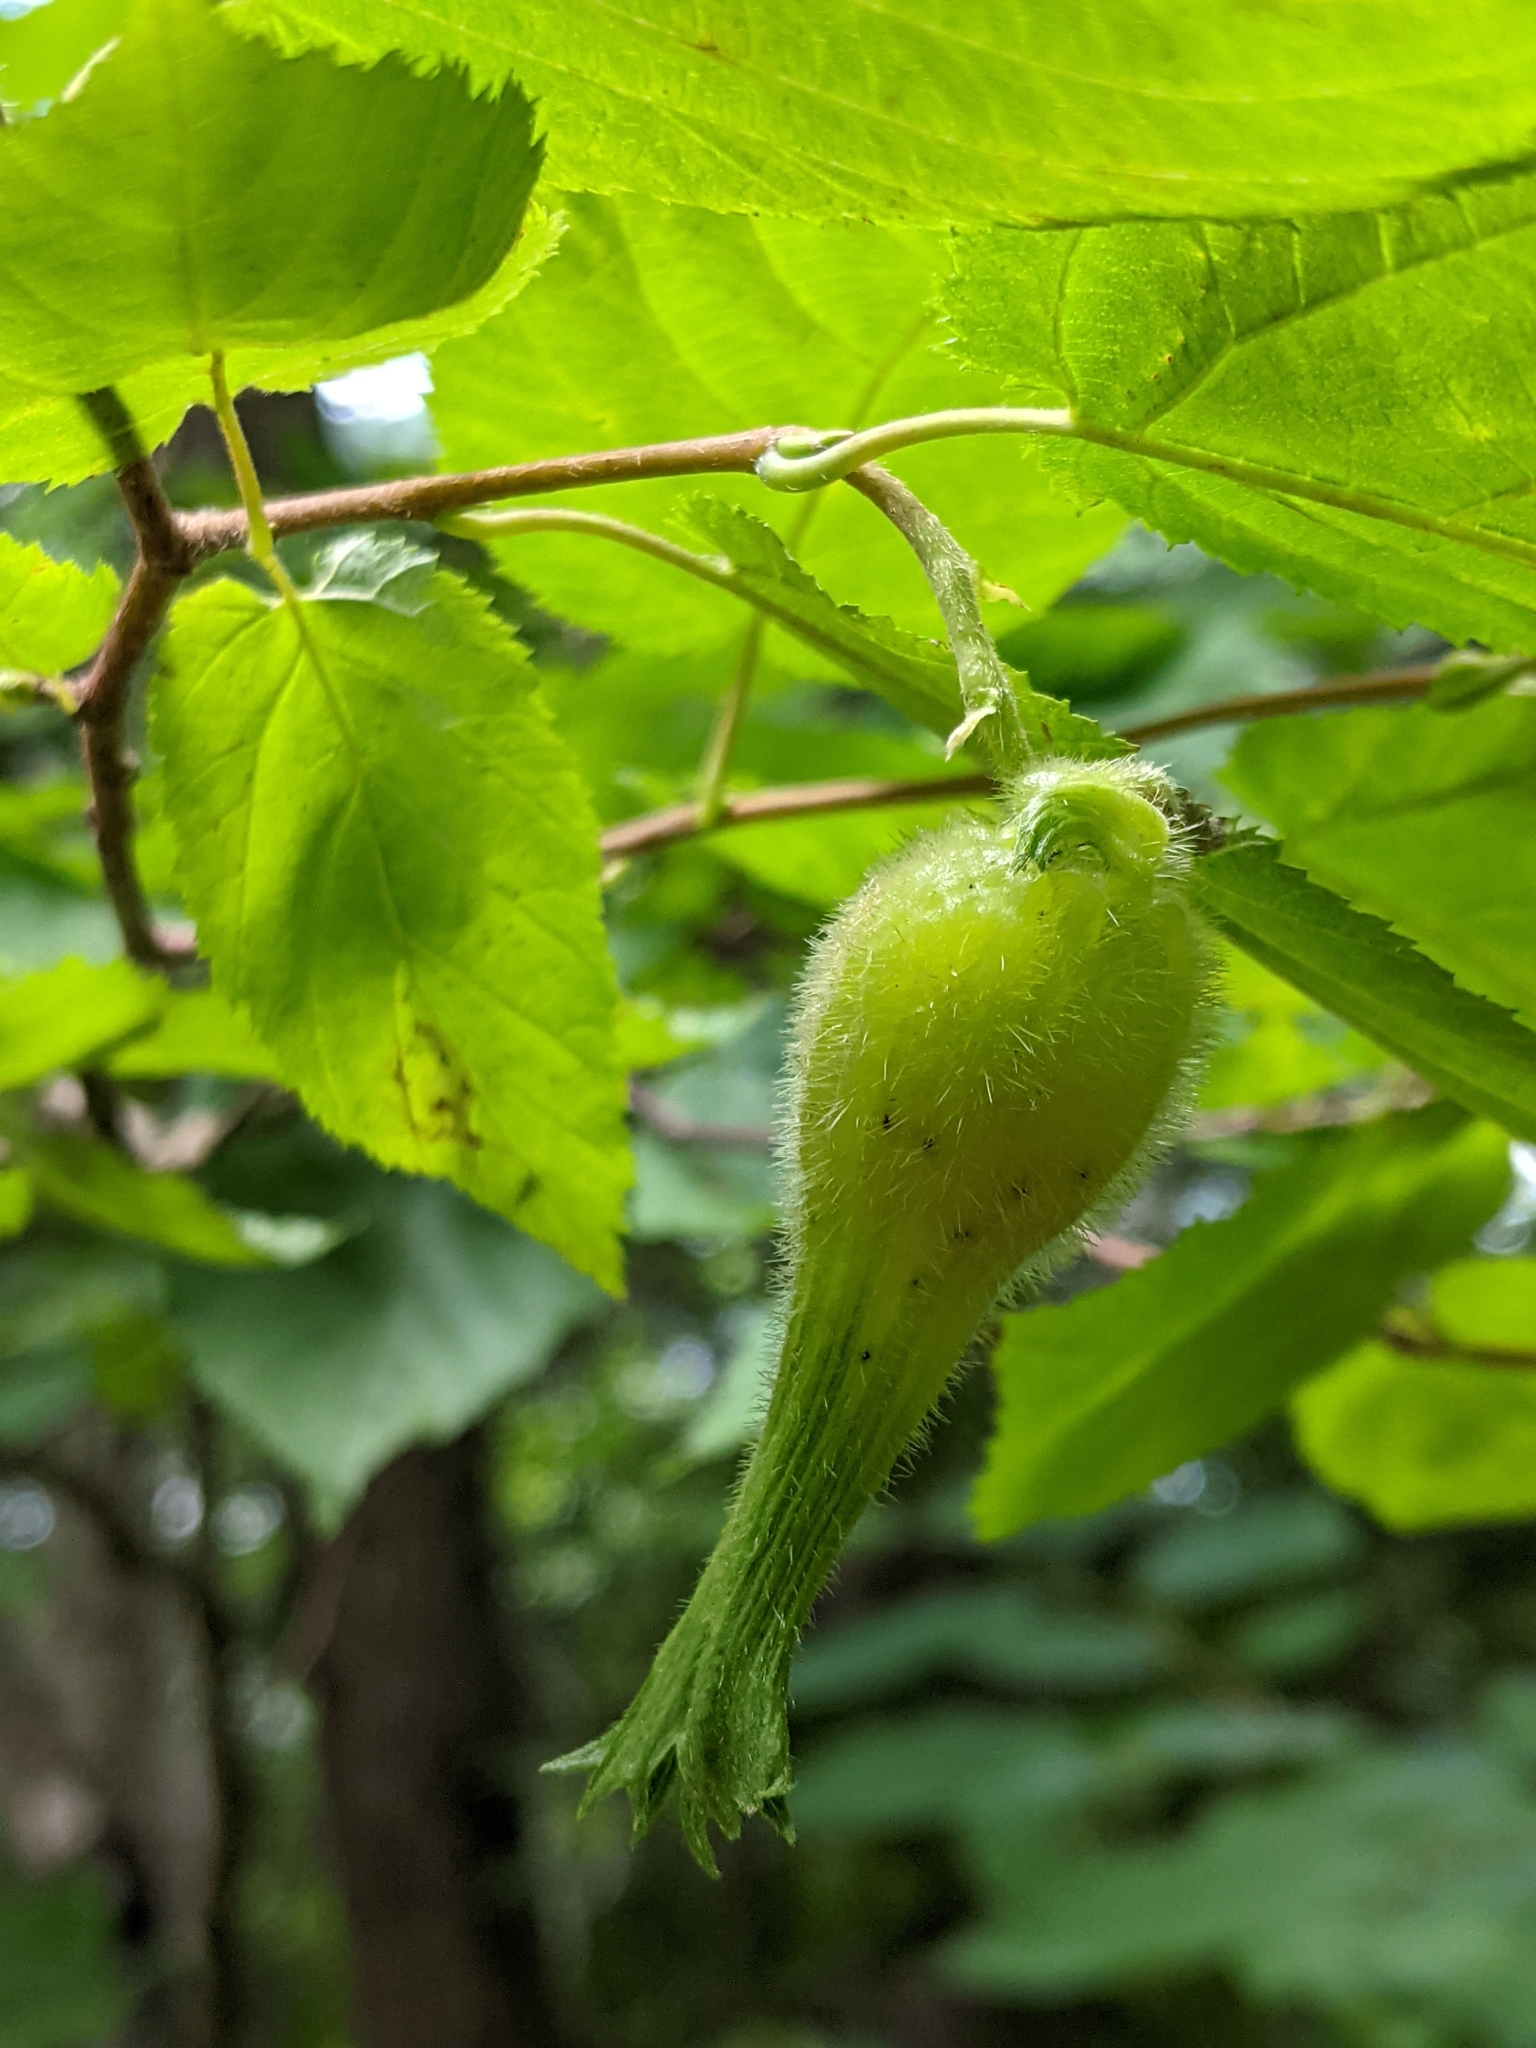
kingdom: Plantae
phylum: Tracheophyta
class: Magnoliopsida
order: Fagales
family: Betulaceae
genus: Corylus
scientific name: Corylus cornuta
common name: Beaked hazel
